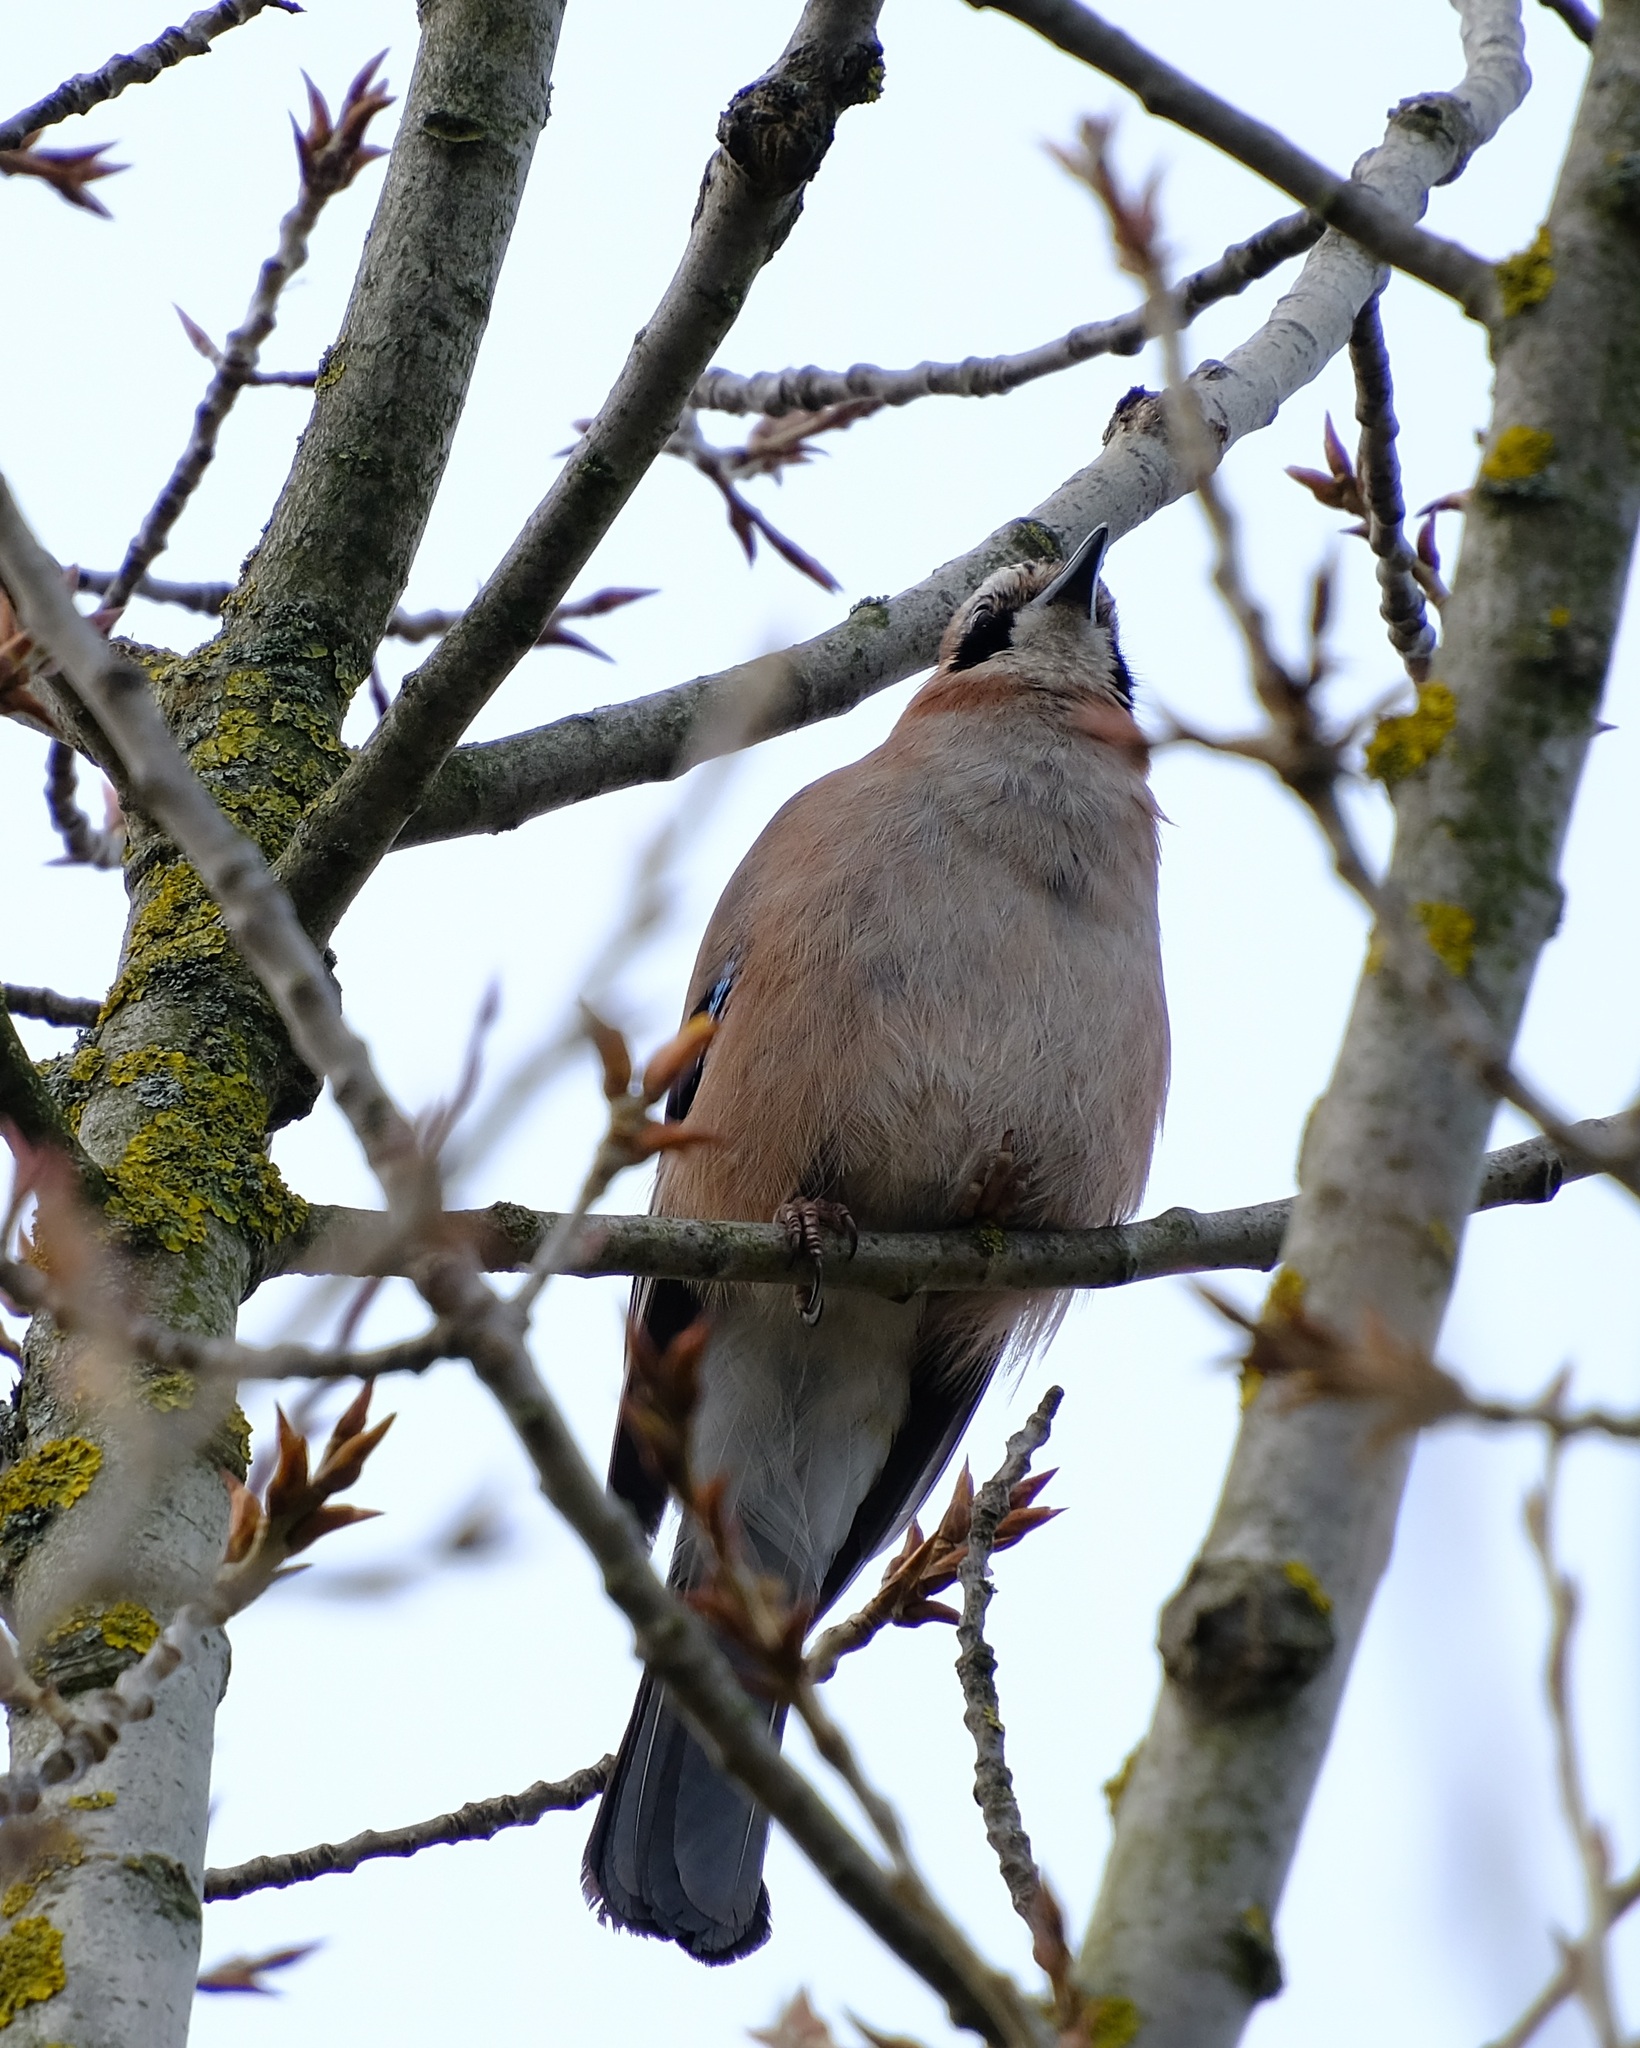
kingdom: Animalia
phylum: Chordata
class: Aves
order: Passeriformes
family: Corvidae
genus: Garrulus
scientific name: Garrulus glandarius
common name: Eurasian jay
